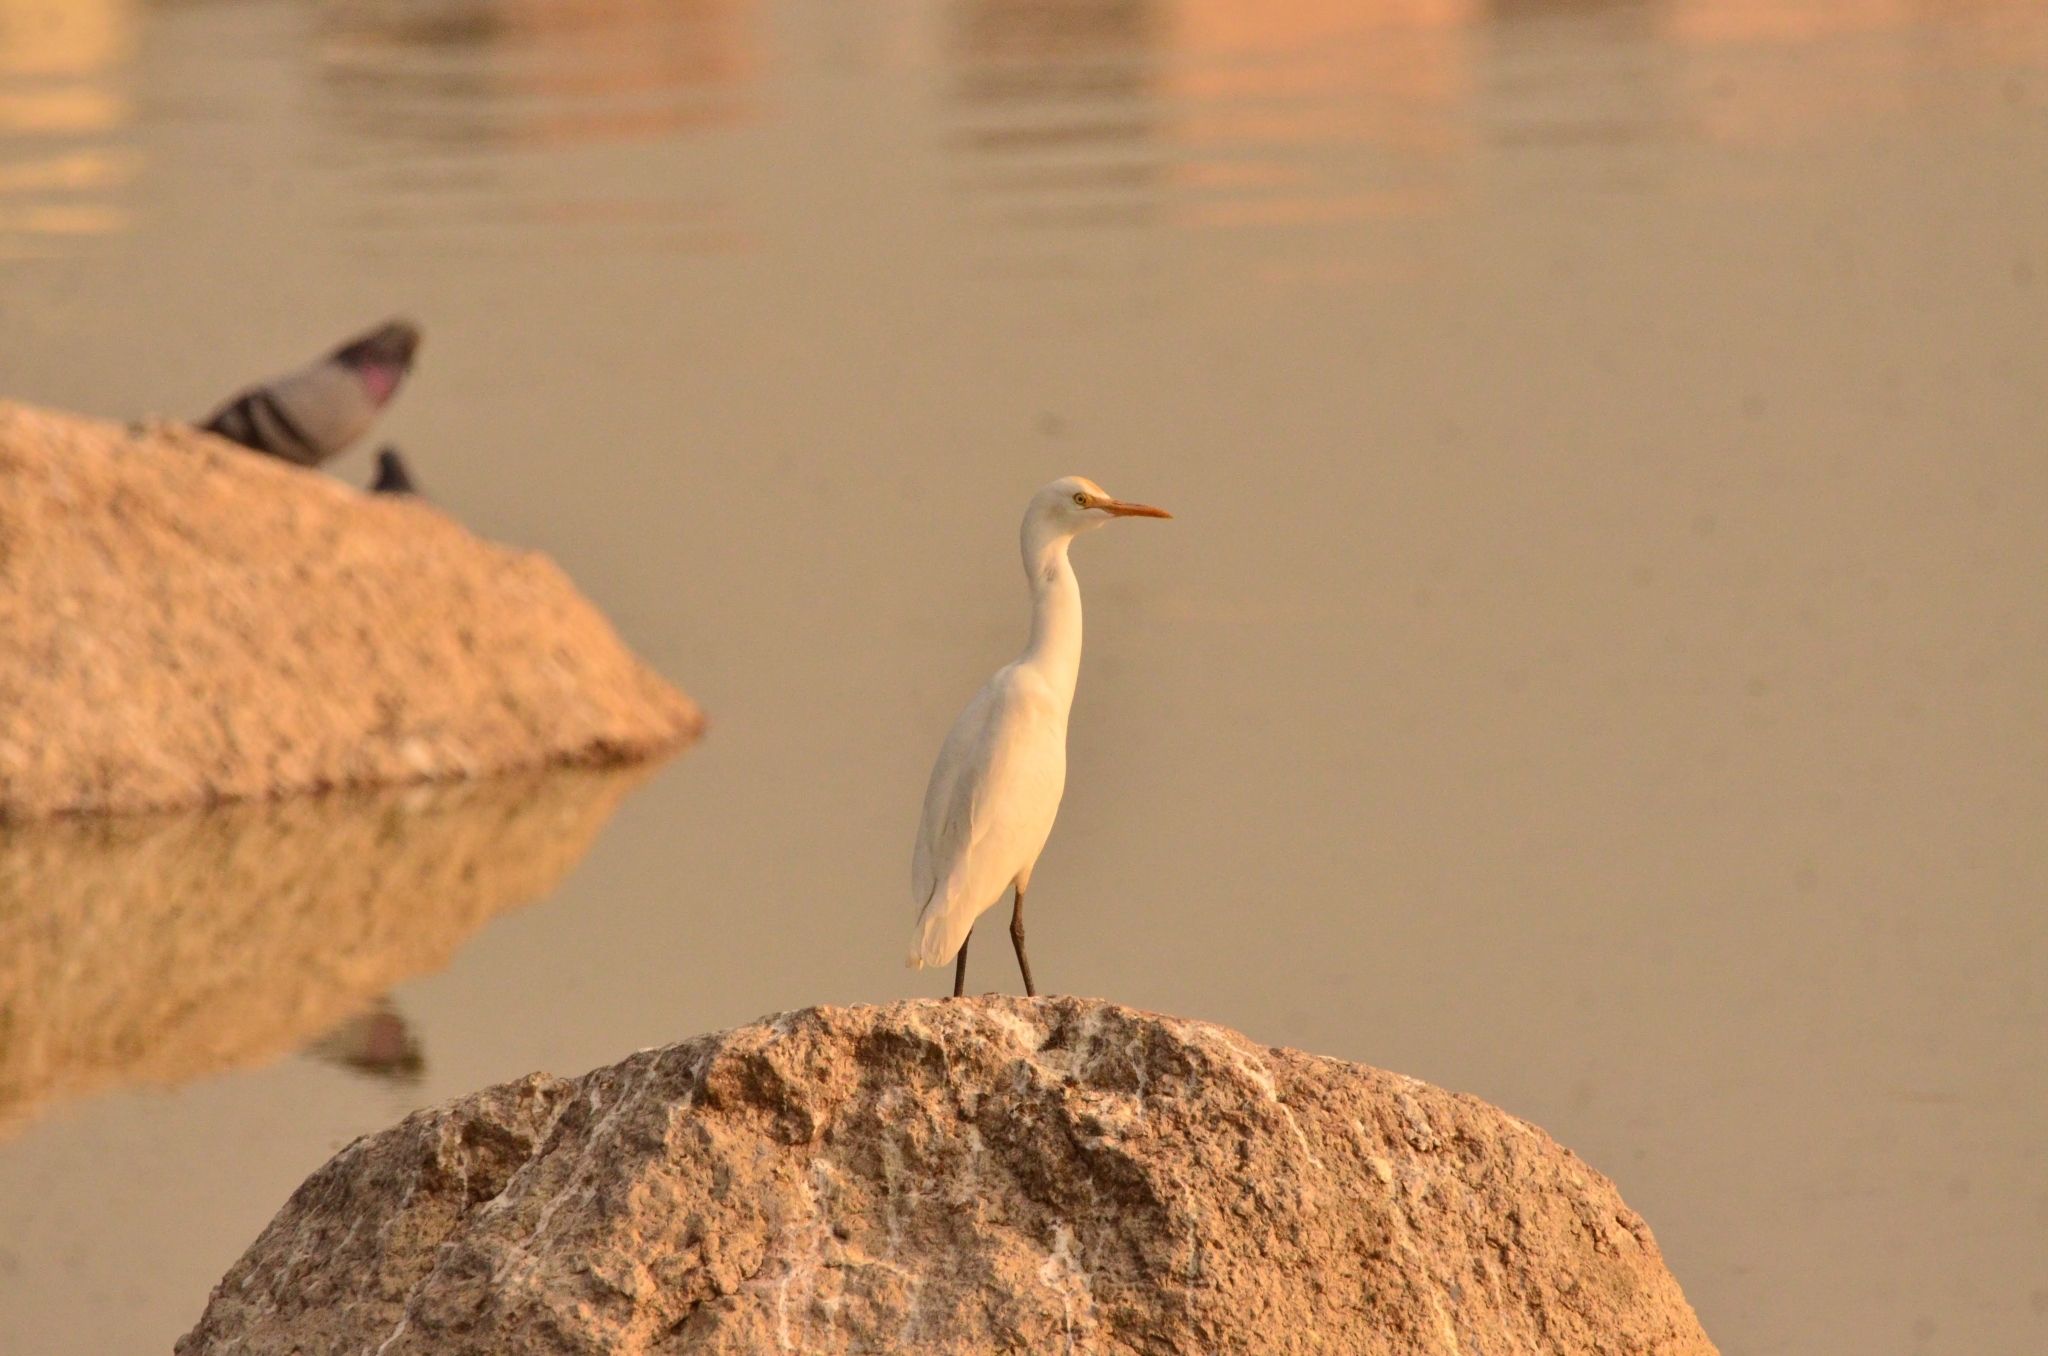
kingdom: Animalia
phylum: Chordata
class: Aves
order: Pelecaniformes
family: Ardeidae
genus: Bubulcus
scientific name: Bubulcus coromandus
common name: Eastern cattle egret
